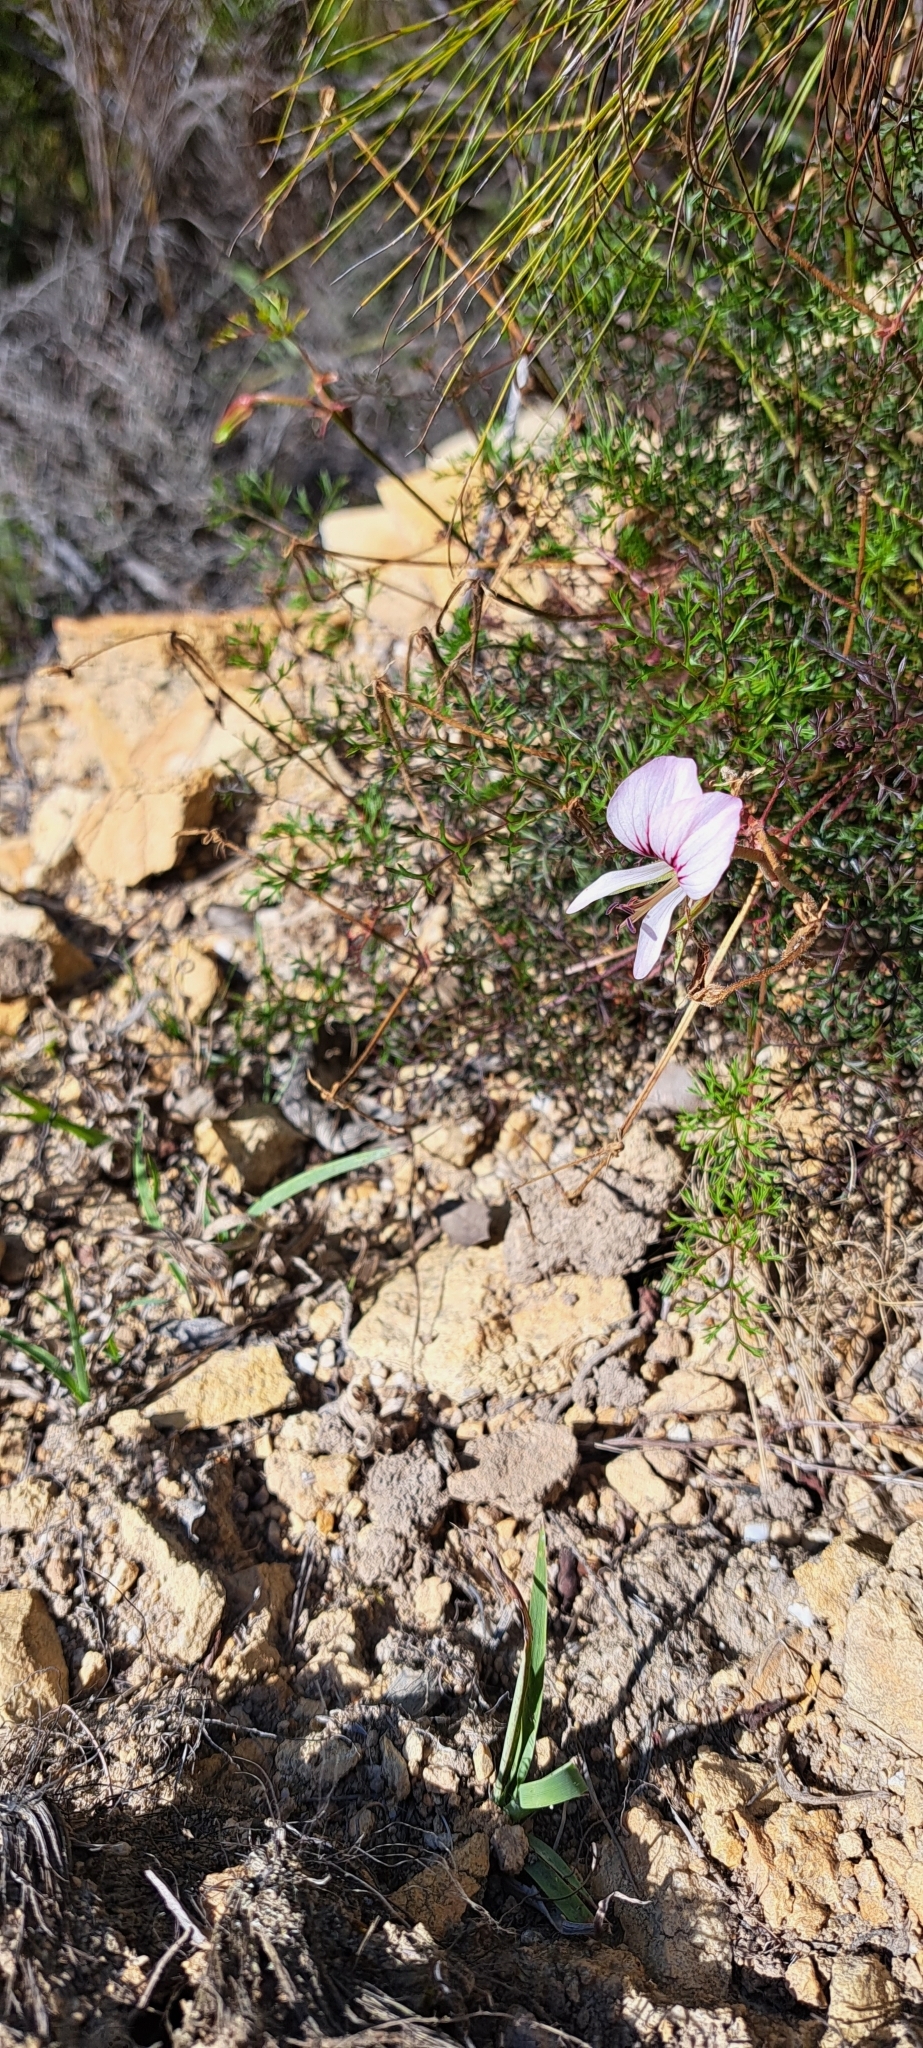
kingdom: Plantae
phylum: Tracheophyta
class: Magnoliopsida
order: Geraniales
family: Geraniaceae
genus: Pelargonium
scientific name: Pelargonium myrrhifolium
